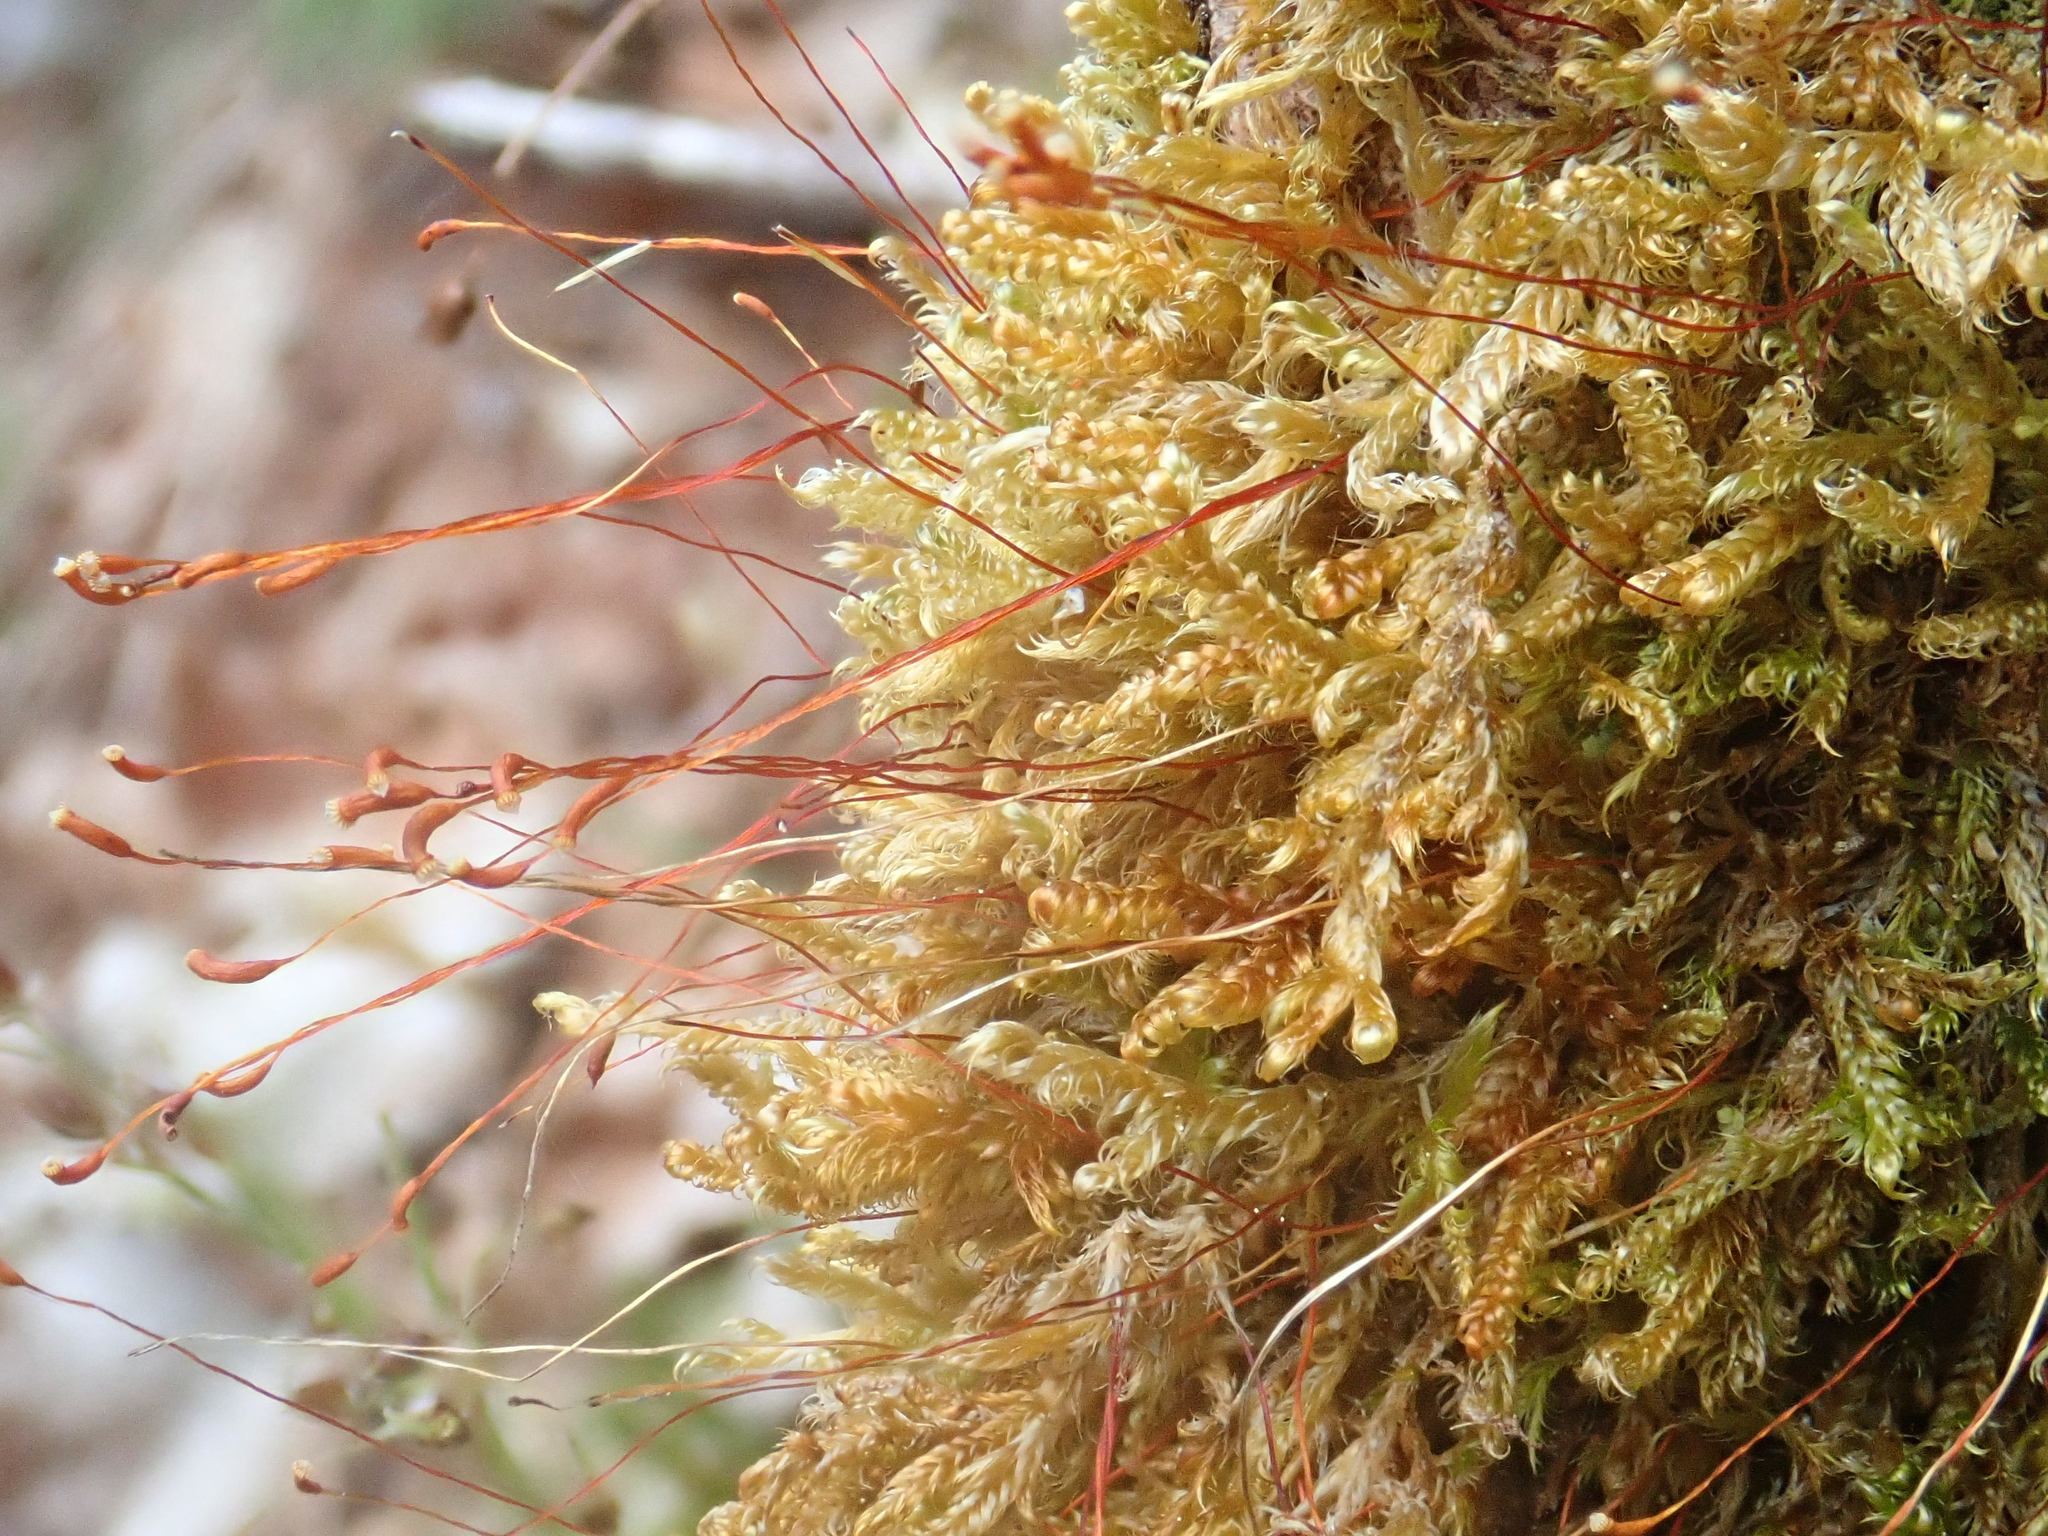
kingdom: Plantae
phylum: Bryophyta
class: Bryopsida
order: Hypnales
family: Scorpidiaceae
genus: Sanionia
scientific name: Sanionia uncinata
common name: Sickle moss
